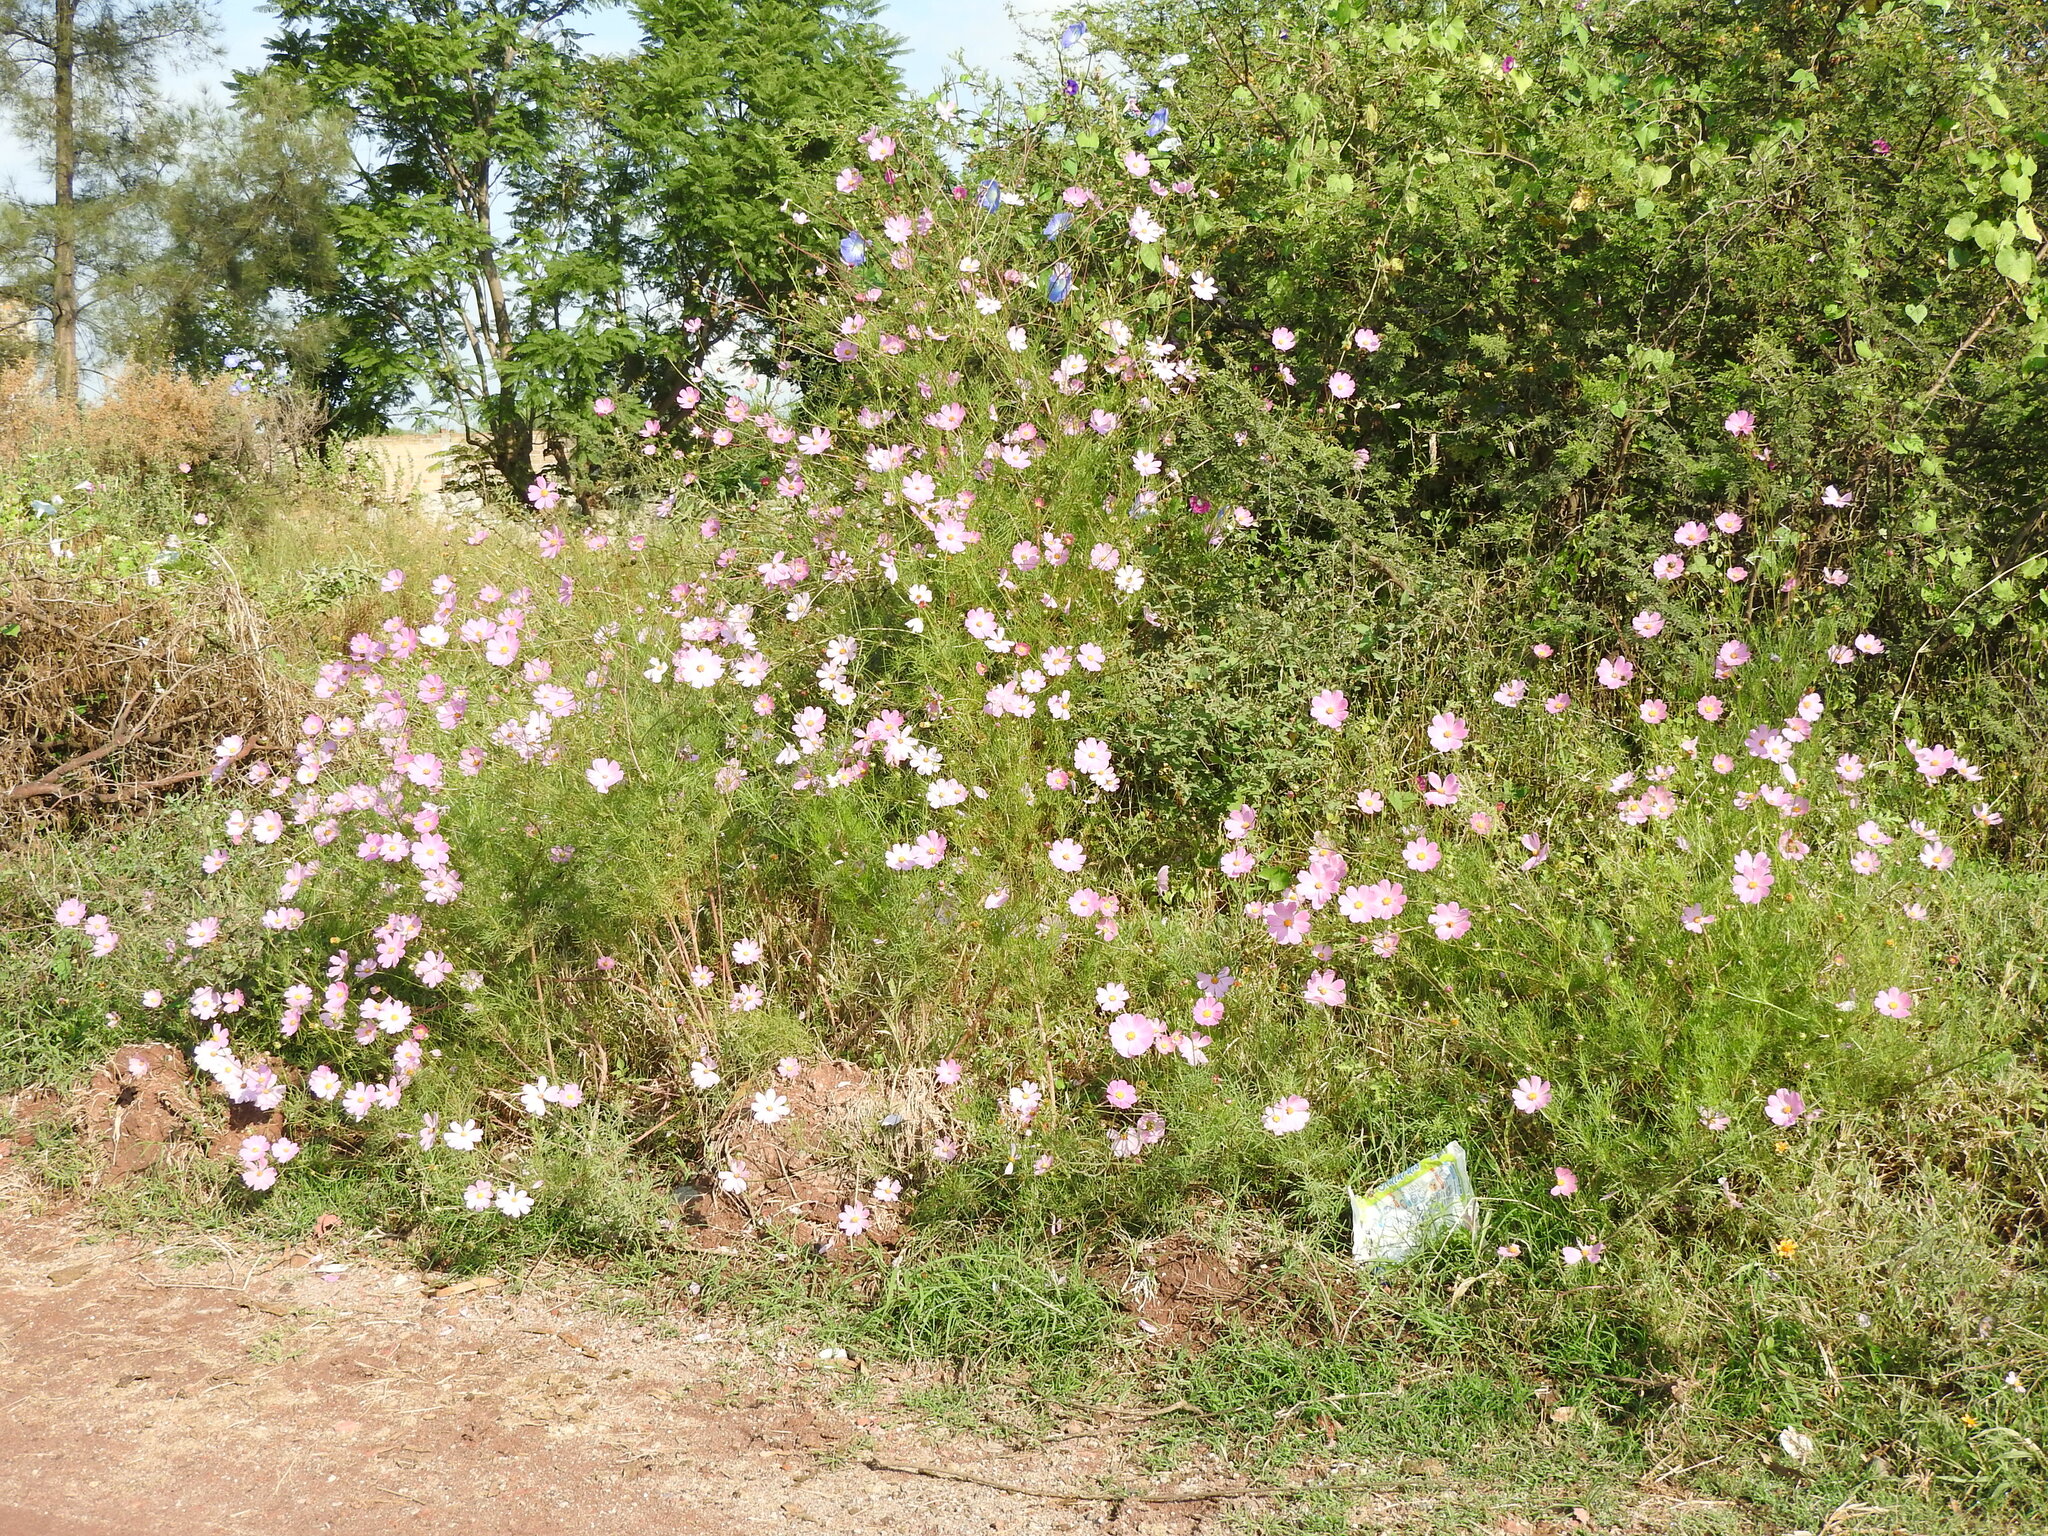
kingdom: Plantae
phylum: Tracheophyta
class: Magnoliopsida
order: Asterales
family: Asteraceae
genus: Cosmos
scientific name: Cosmos bipinnatus
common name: Garden cosmos
